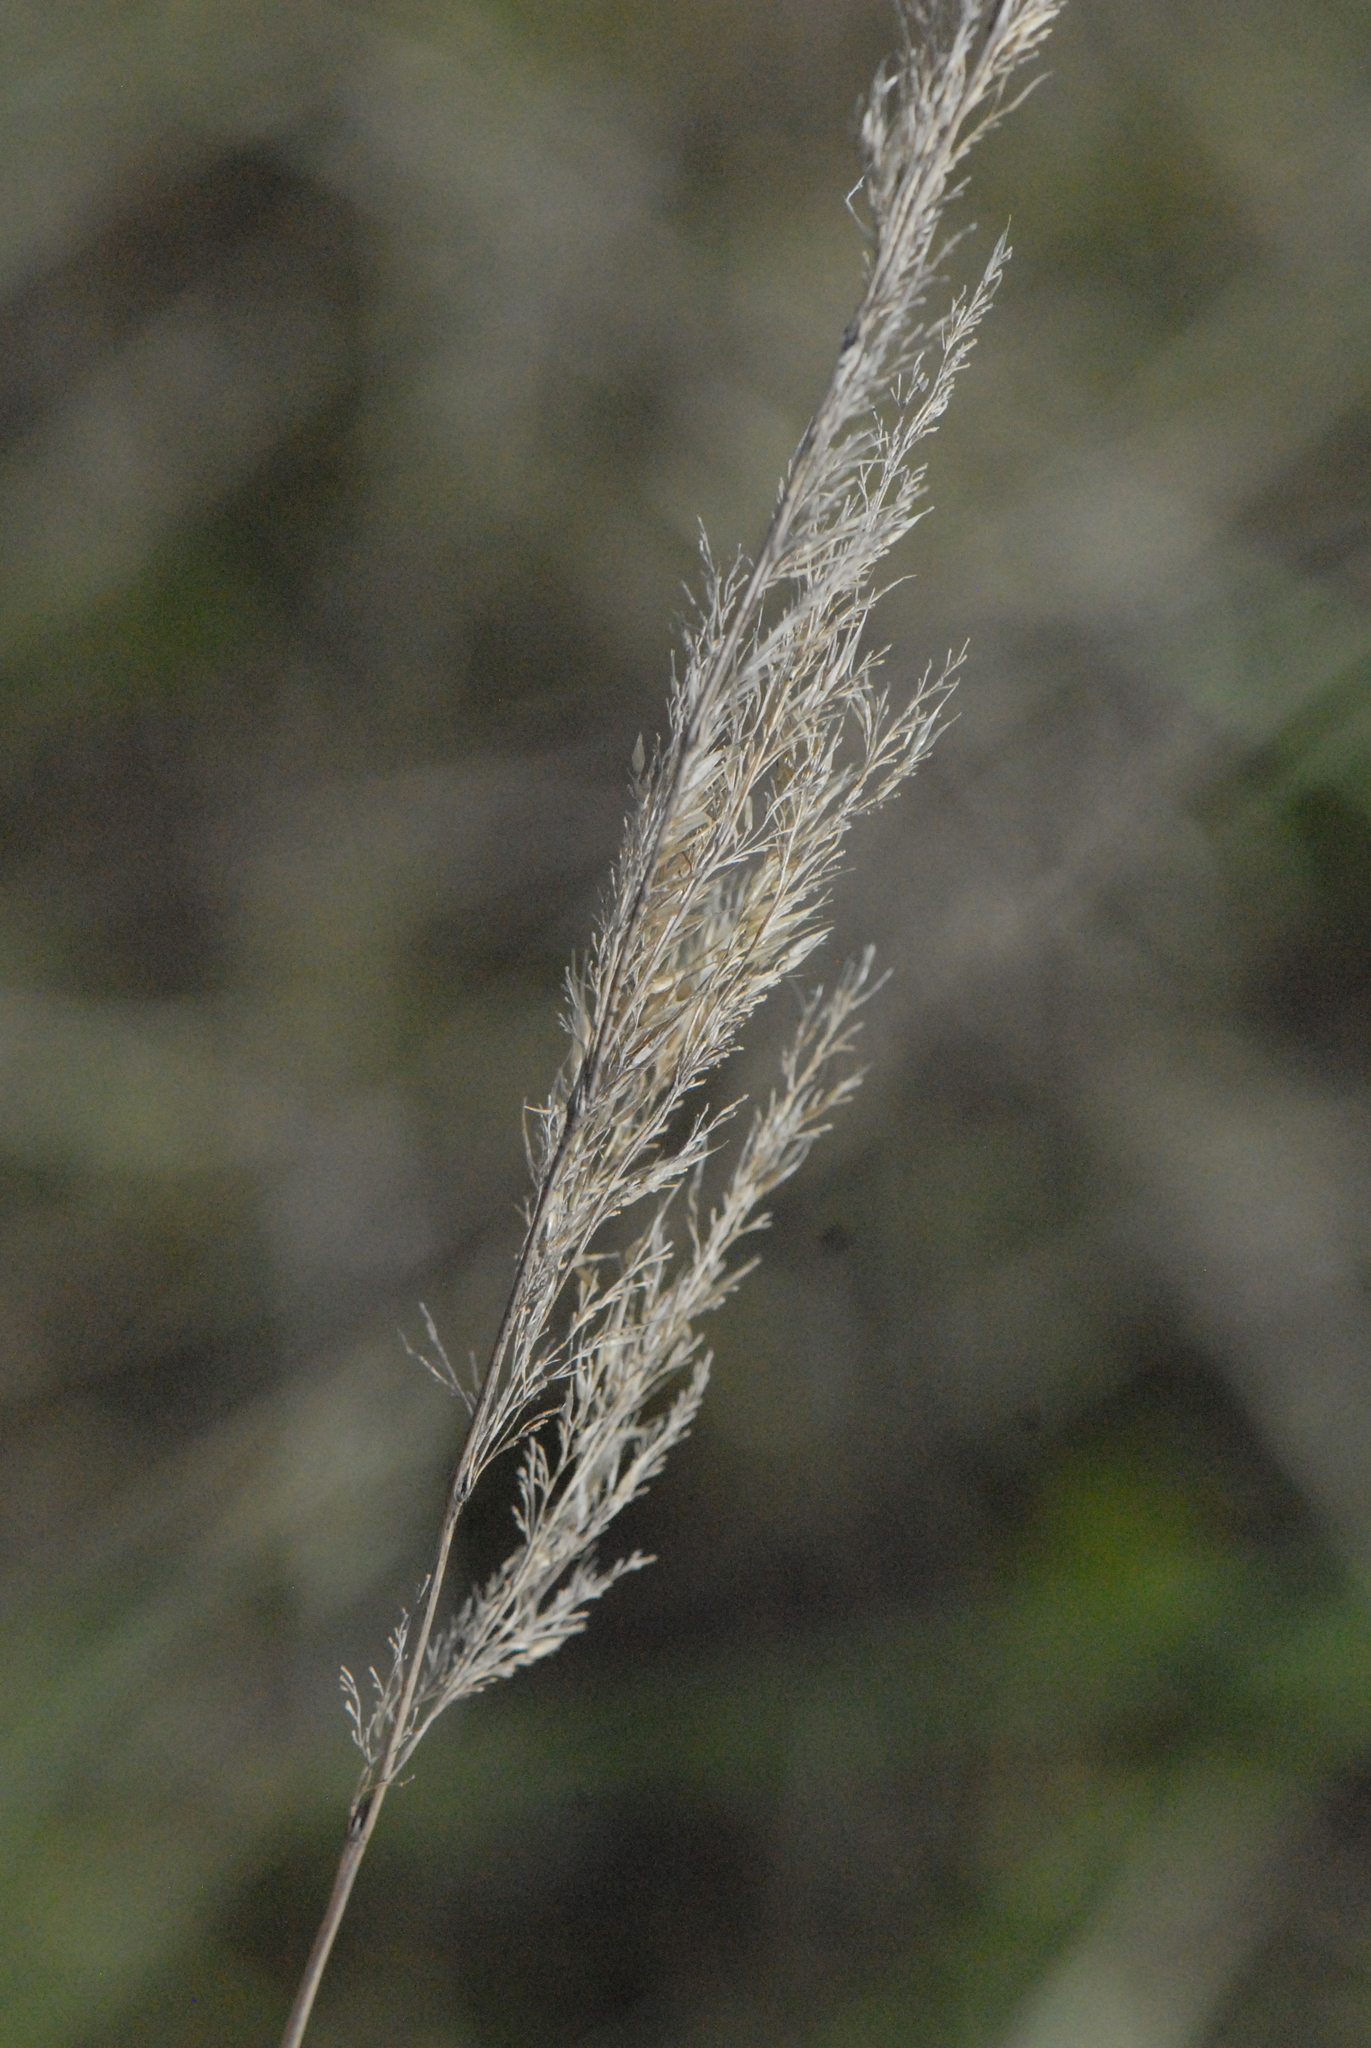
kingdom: Plantae
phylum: Tracheophyta
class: Liliopsida
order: Poales
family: Poaceae
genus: Calamagrostis
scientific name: Calamagrostis epigejos
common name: Wood small-reed
